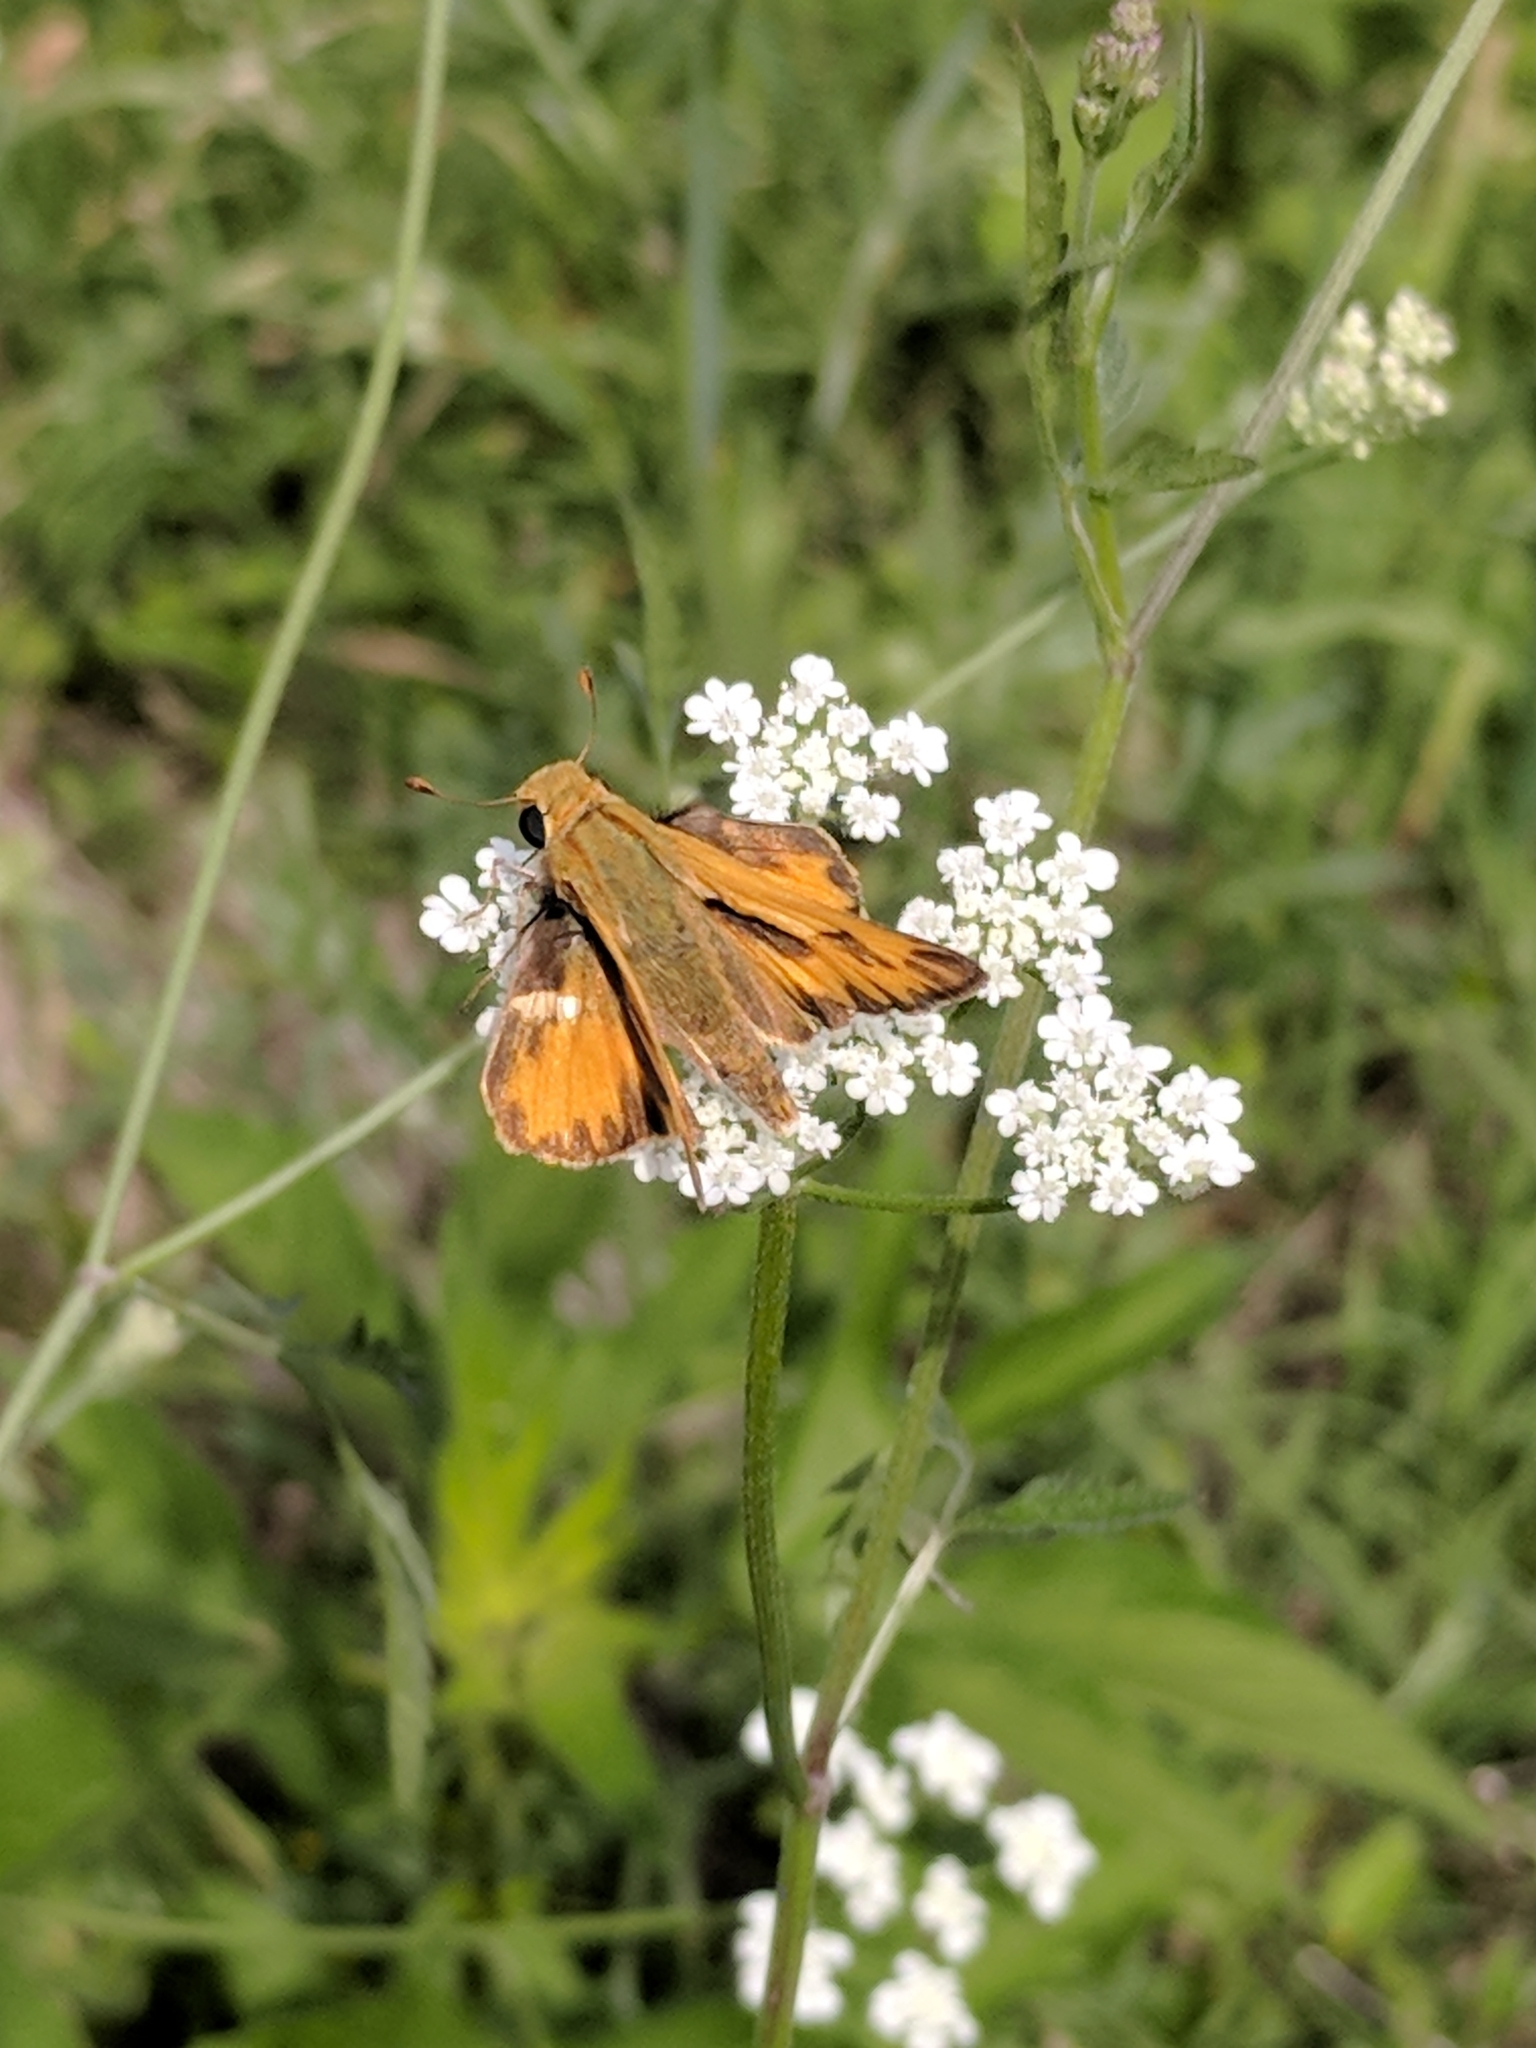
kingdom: Animalia
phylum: Arthropoda
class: Insecta
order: Lepidoptera
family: Hesperiidae
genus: Hylephila
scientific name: Hylephila phyleus
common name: Fiery skipper
